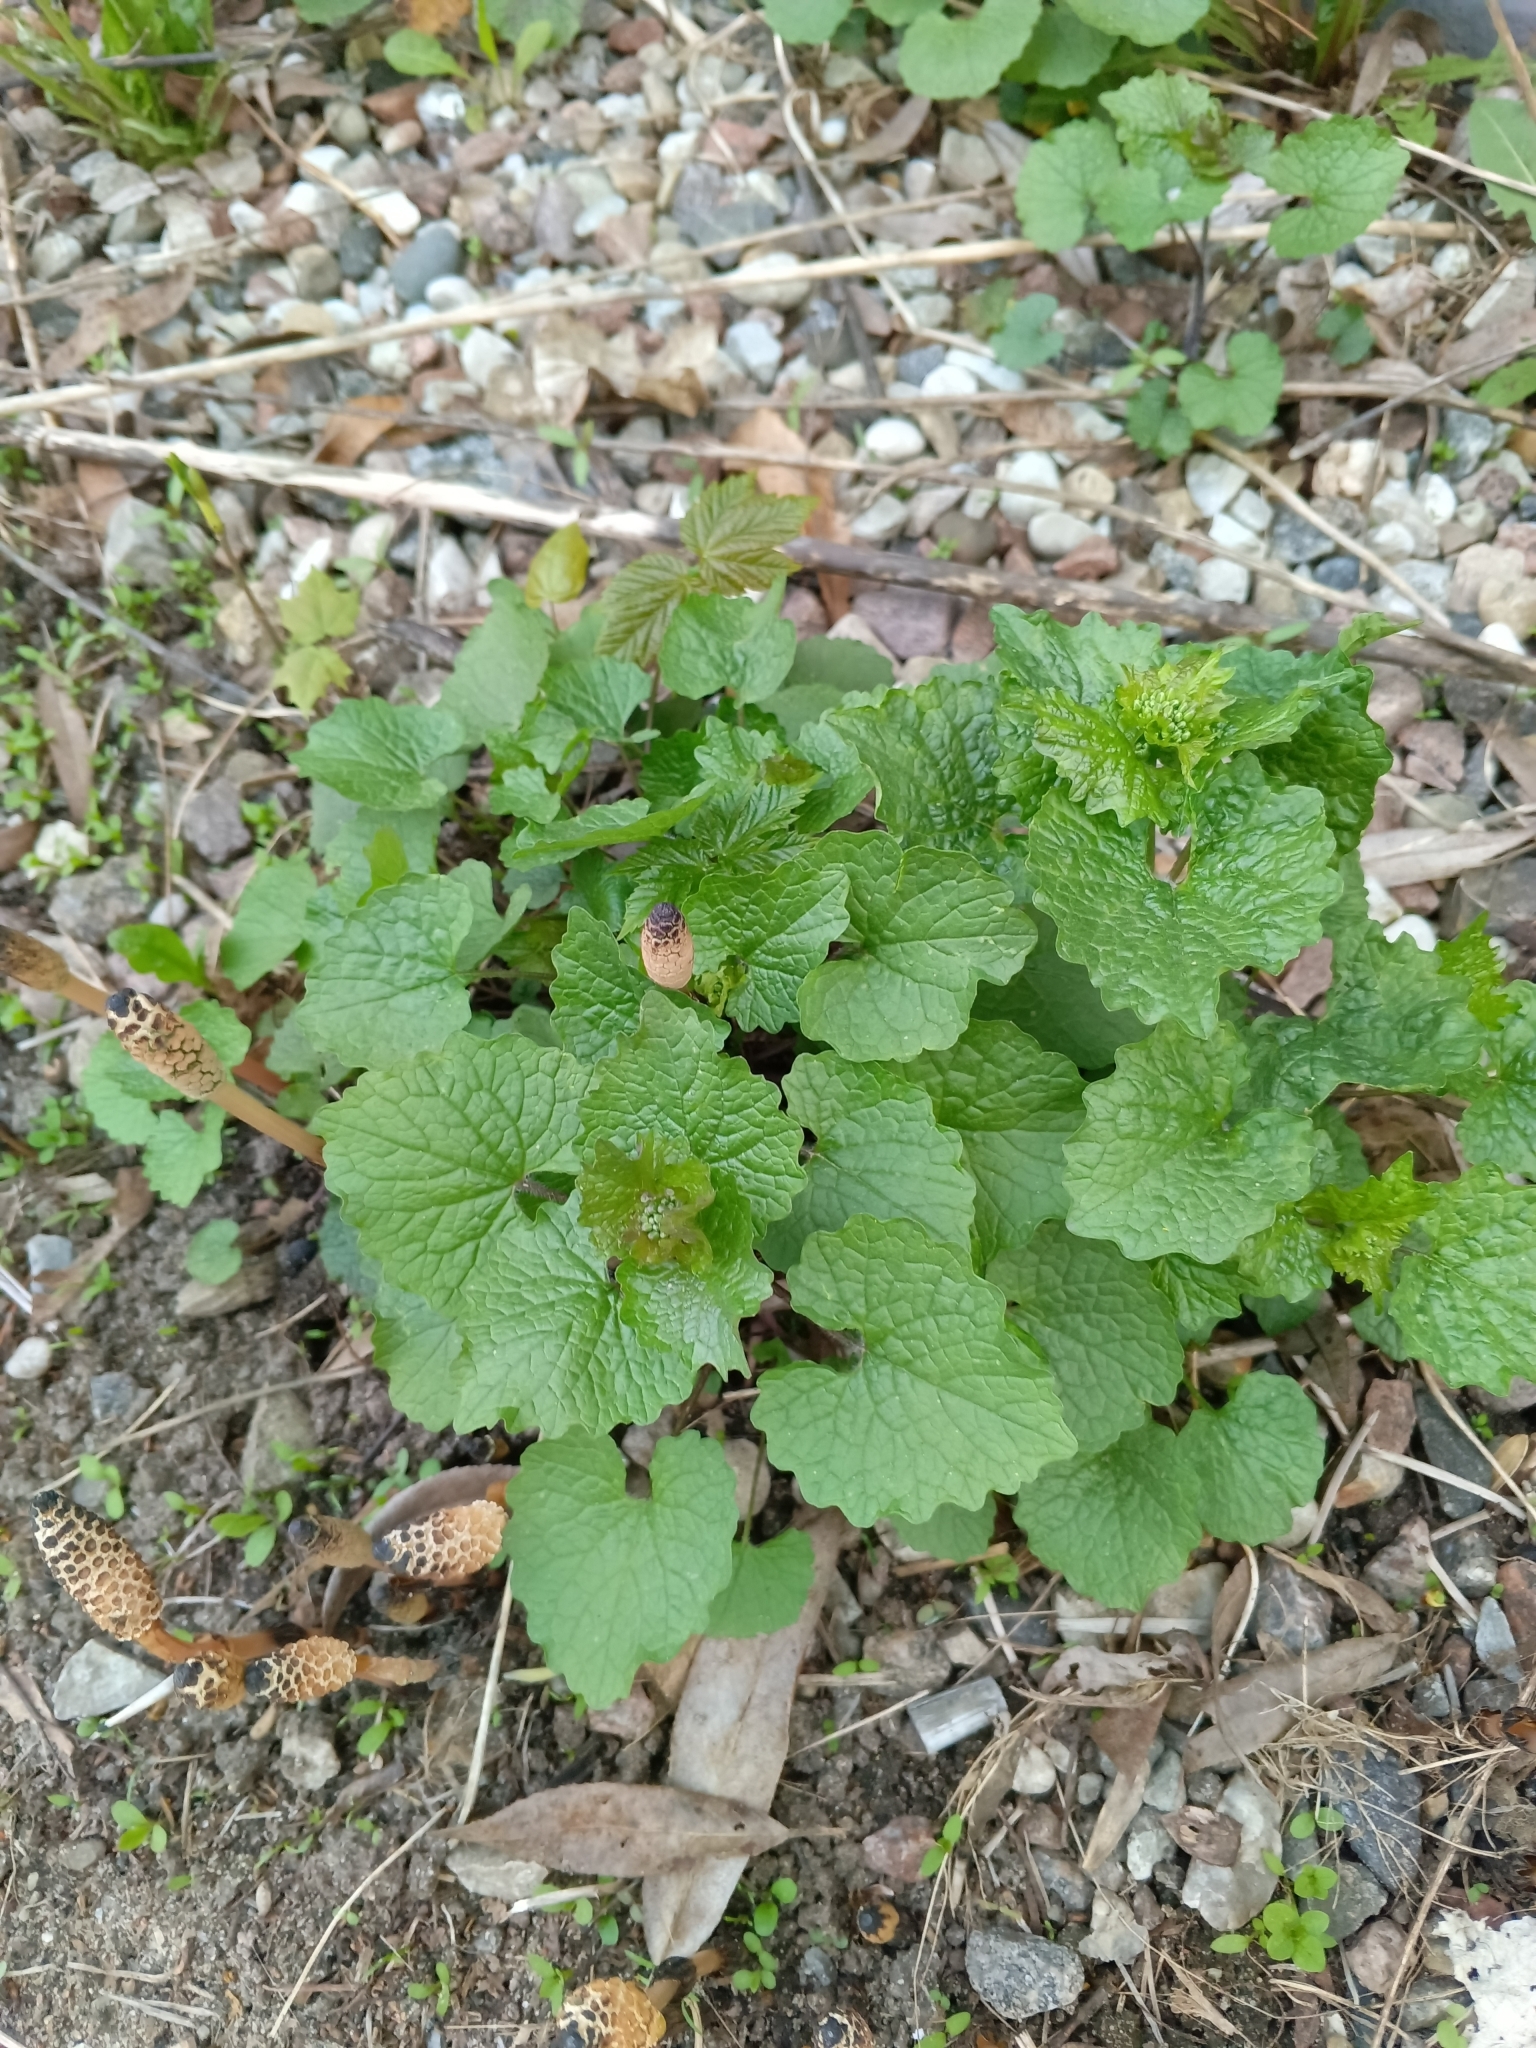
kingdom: Plantae
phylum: Tracheophyta
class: Magnoliopsida
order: Brassicales
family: Brassicaceae
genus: Alliaria
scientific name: Alliaria petiolata
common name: Garlic mustard
